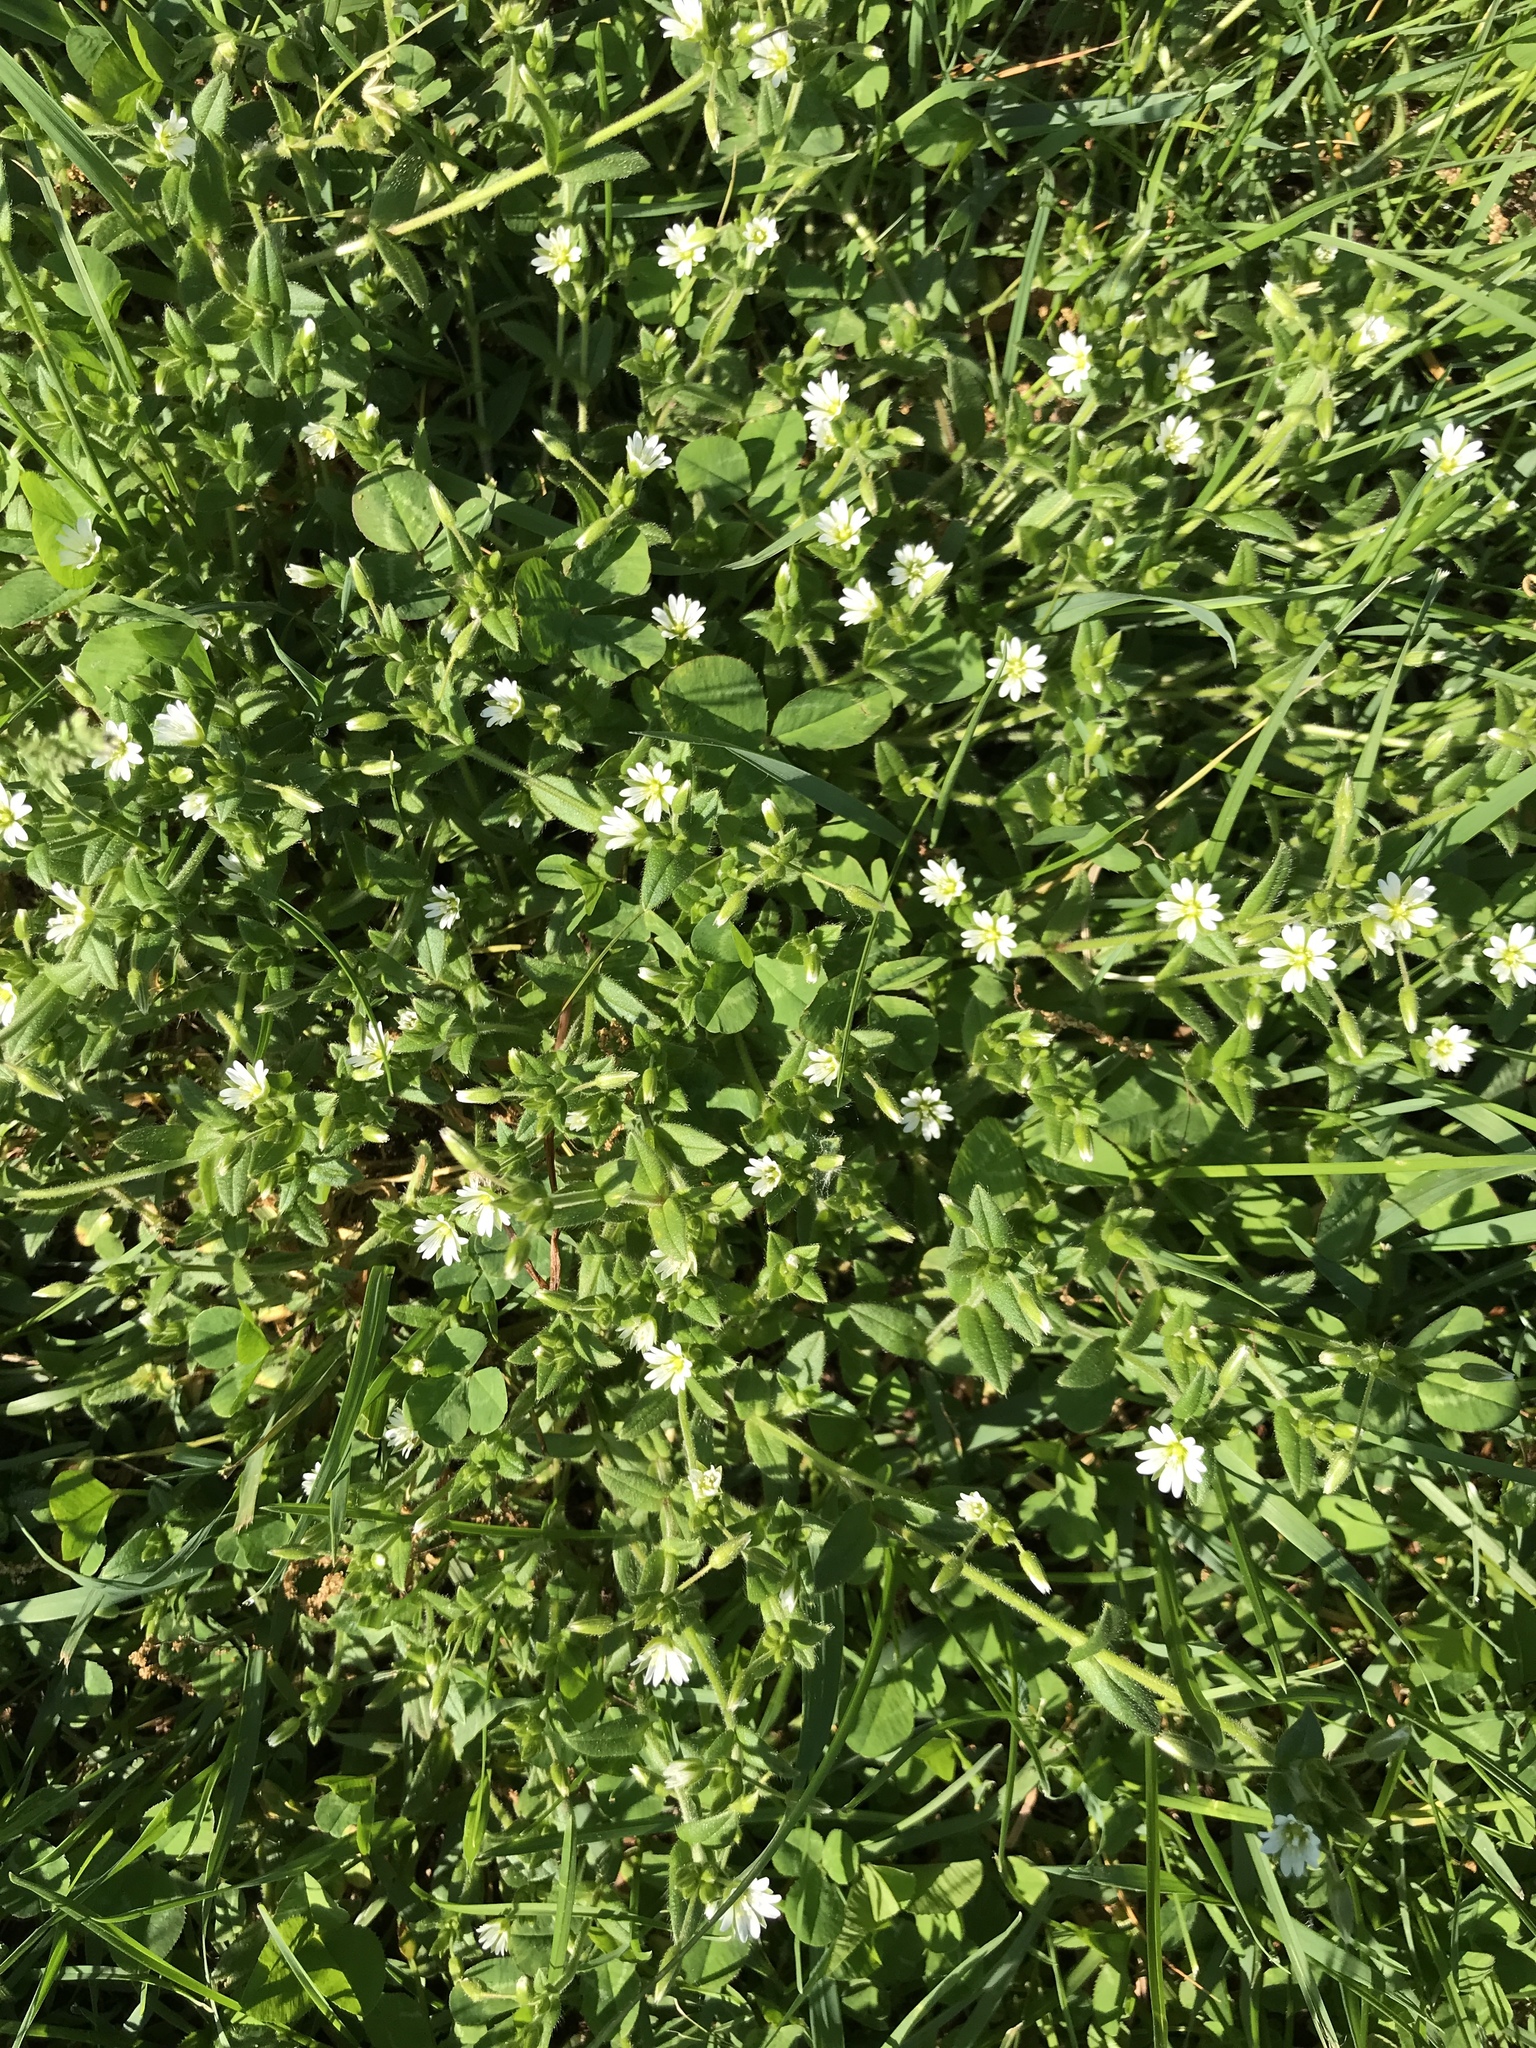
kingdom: Plantae
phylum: Tracheophyta
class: Magnoliopsida
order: Caryophyllales
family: Caryophyllaceae
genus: Cerastium
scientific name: Cerastium nutans
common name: Long-stalked chickweed
